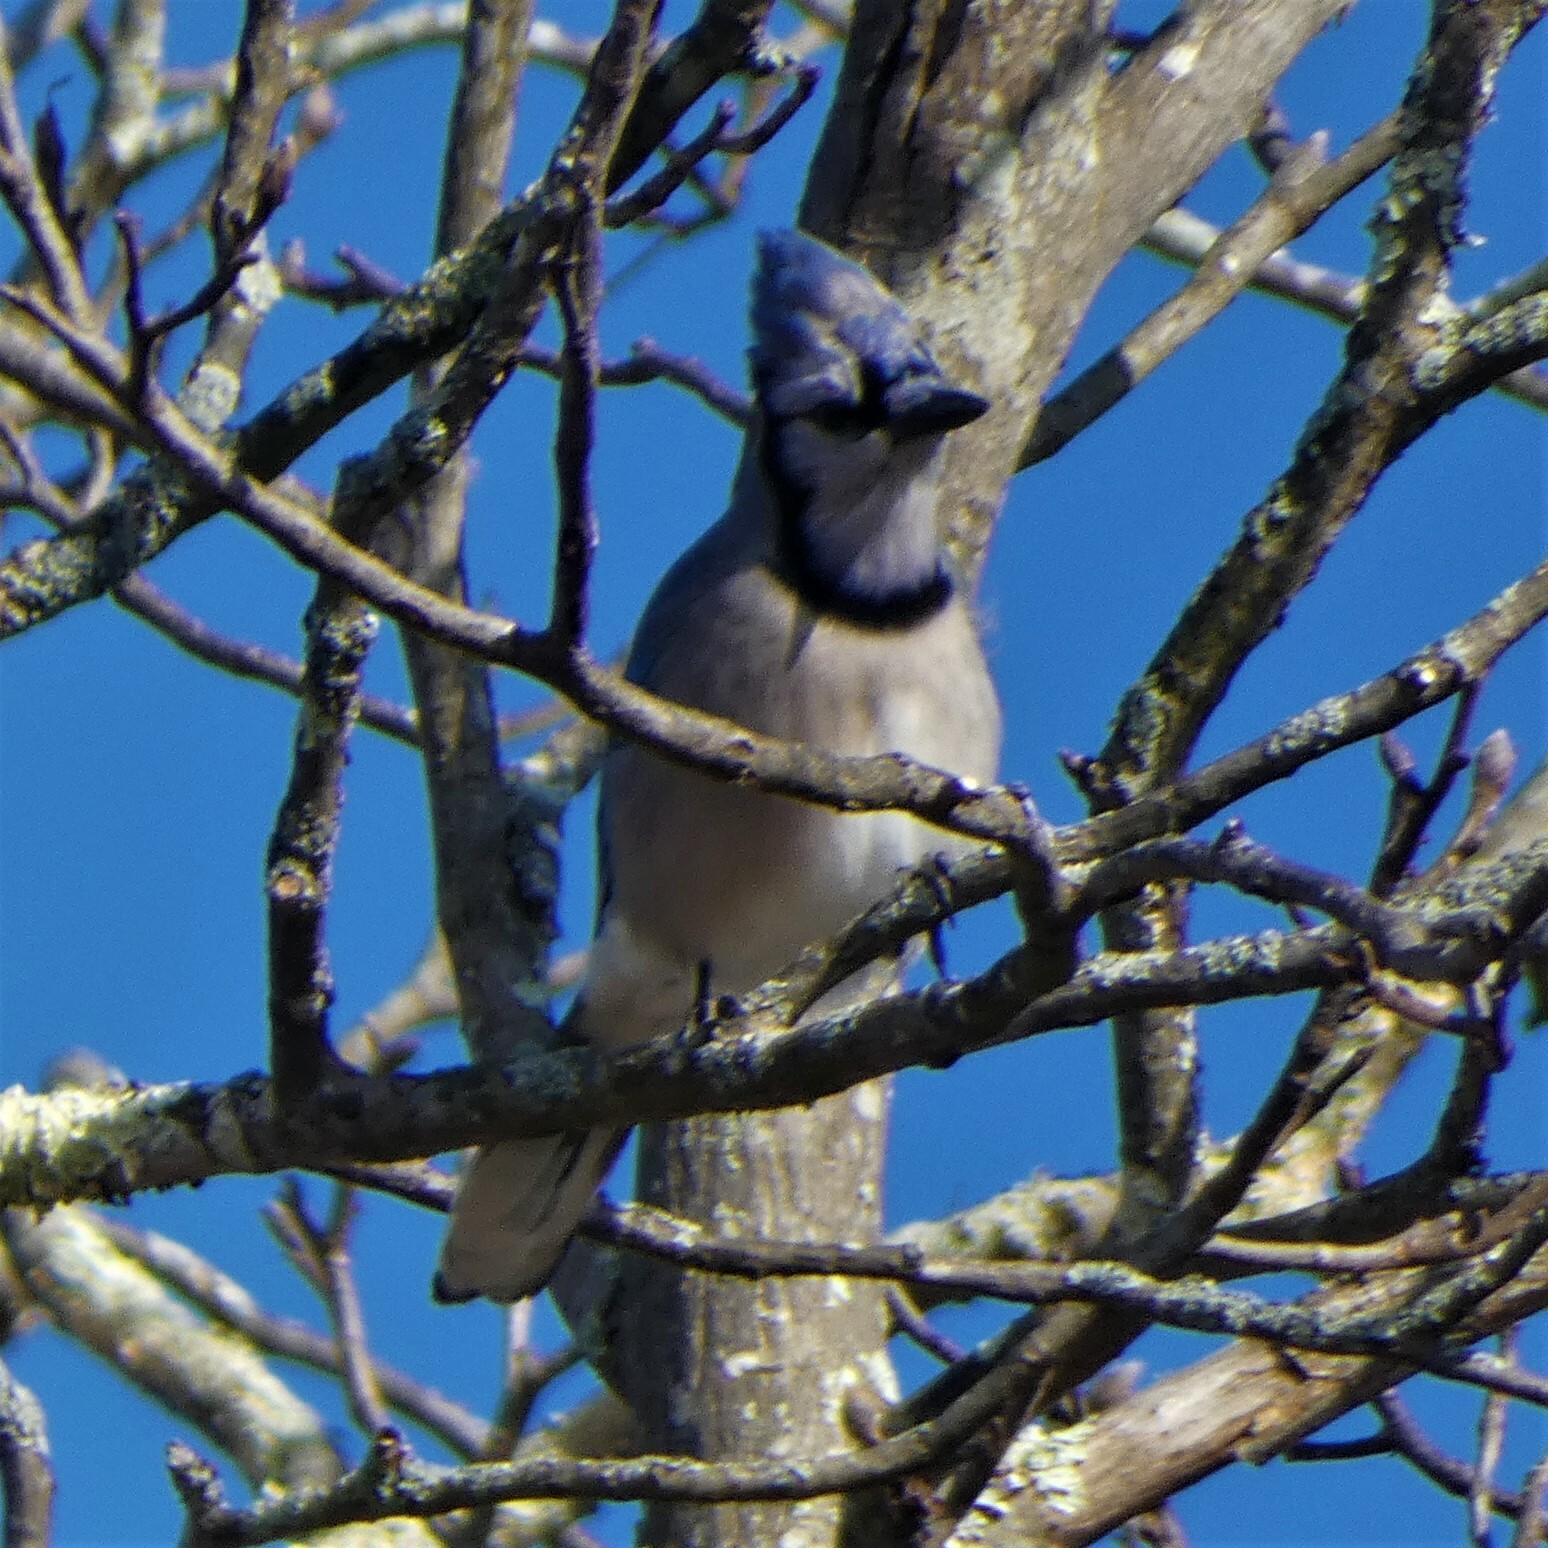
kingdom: Animalia
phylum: Chordata
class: Aves
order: Passeriformes
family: Corvidae
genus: Cyanocitta
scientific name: Cyanocitta cristata
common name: Blue jay
